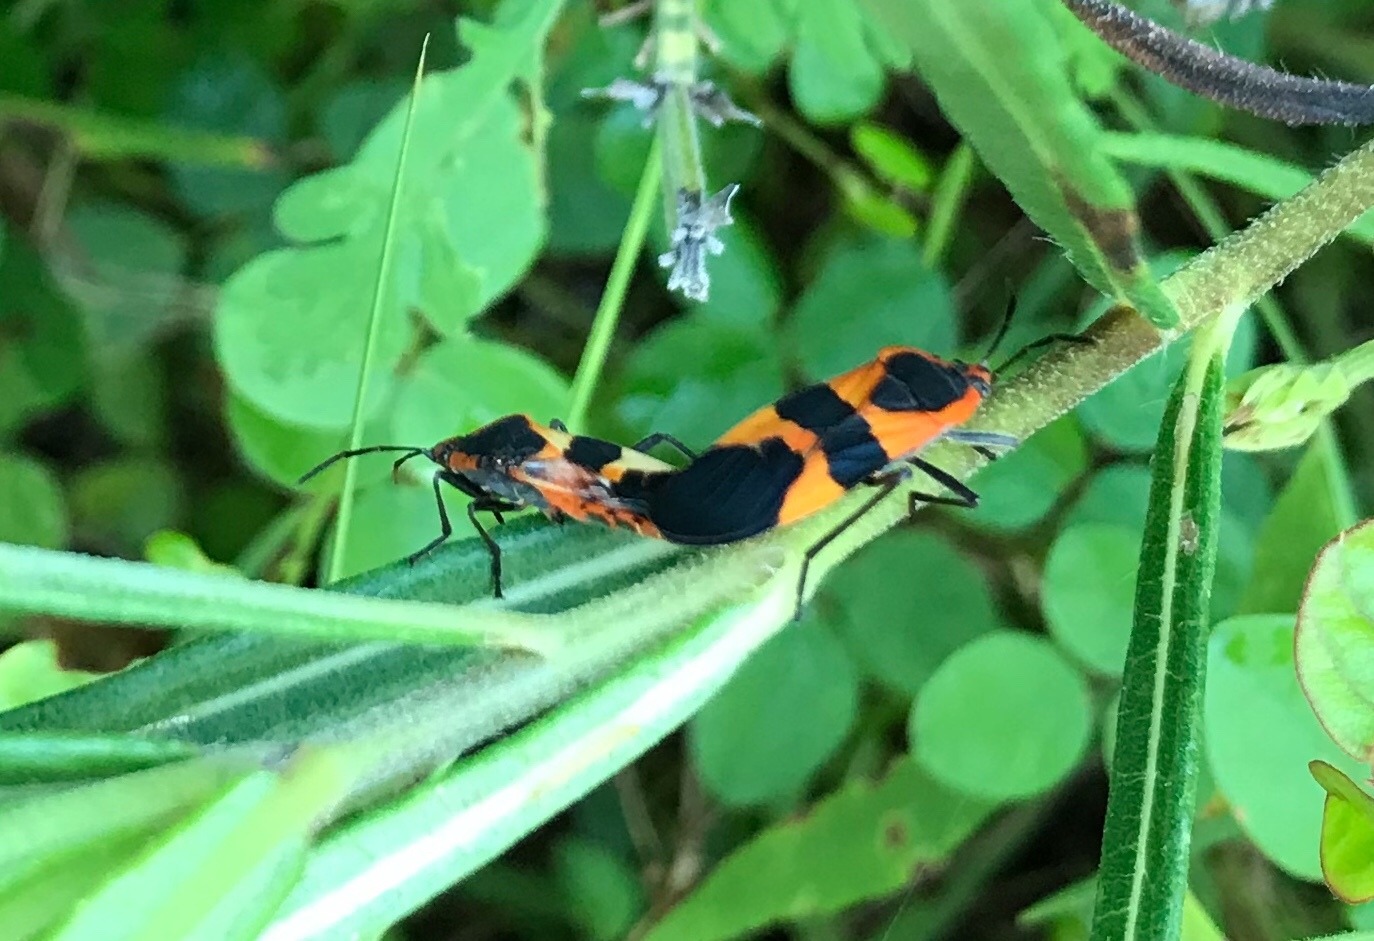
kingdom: Animalia
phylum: Arthropoda
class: Insecta
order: Hemiptera
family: Lygaeidae
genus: Oncopeltus
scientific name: Oncopeltus fasciatus
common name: Large milkweed bug
